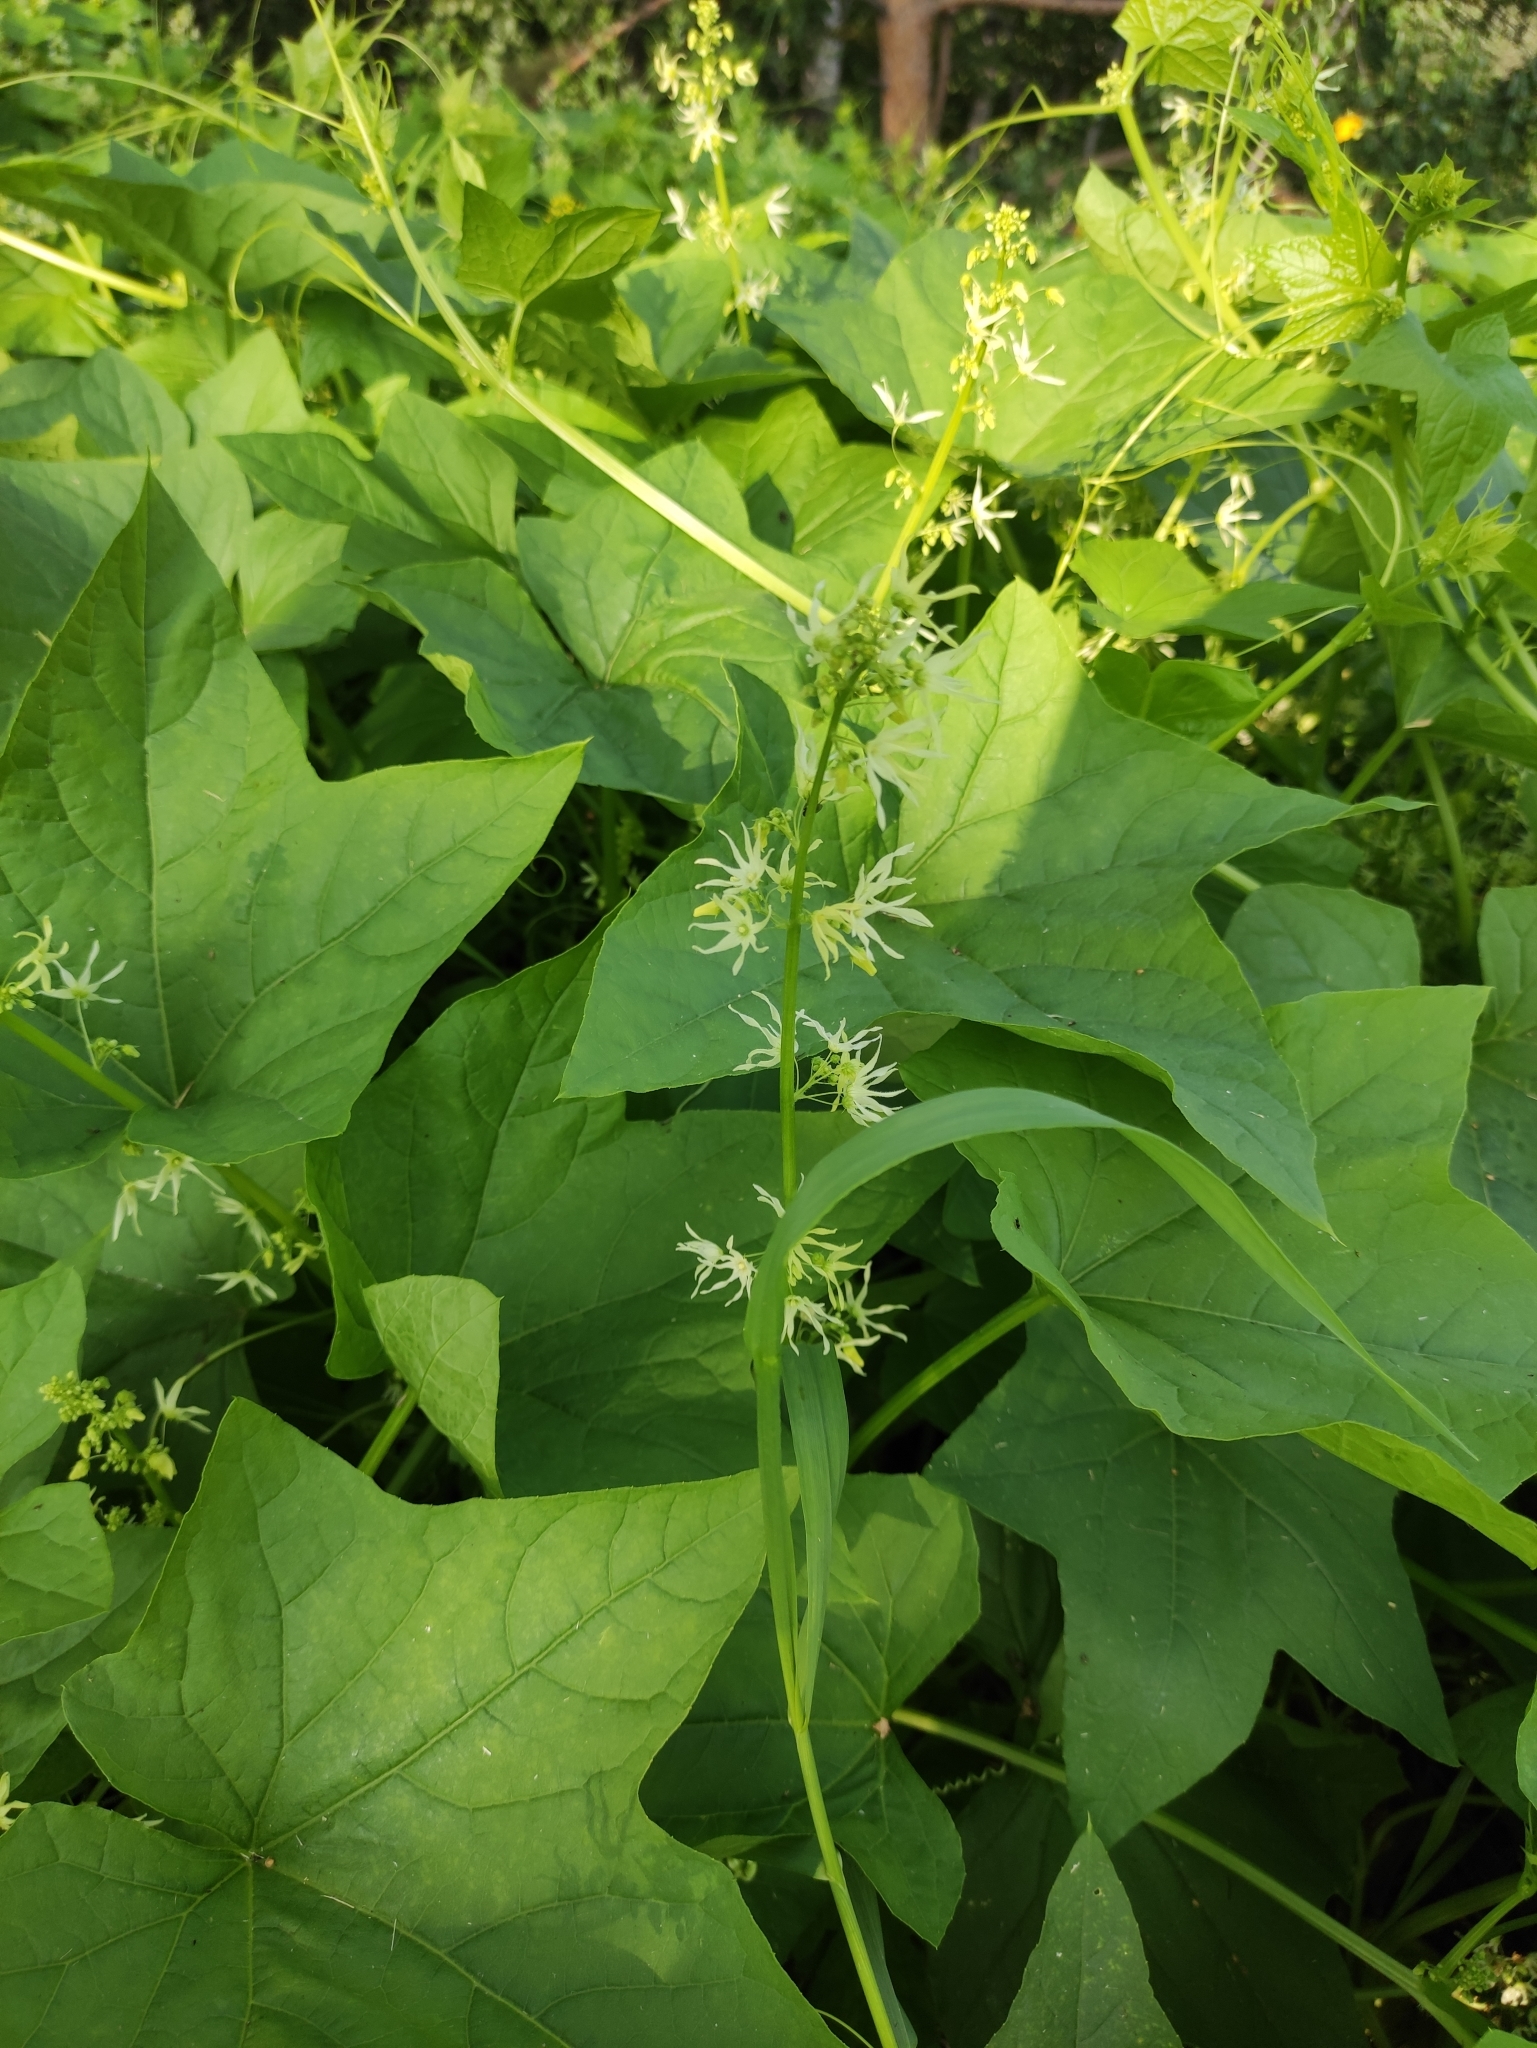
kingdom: Plantae
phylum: Tracheophyta
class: Magnoliopsida
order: Cucurbitales
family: Cucurbitaceae
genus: Echinocystis
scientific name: Echinocystis lobata
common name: Wild cucumber
